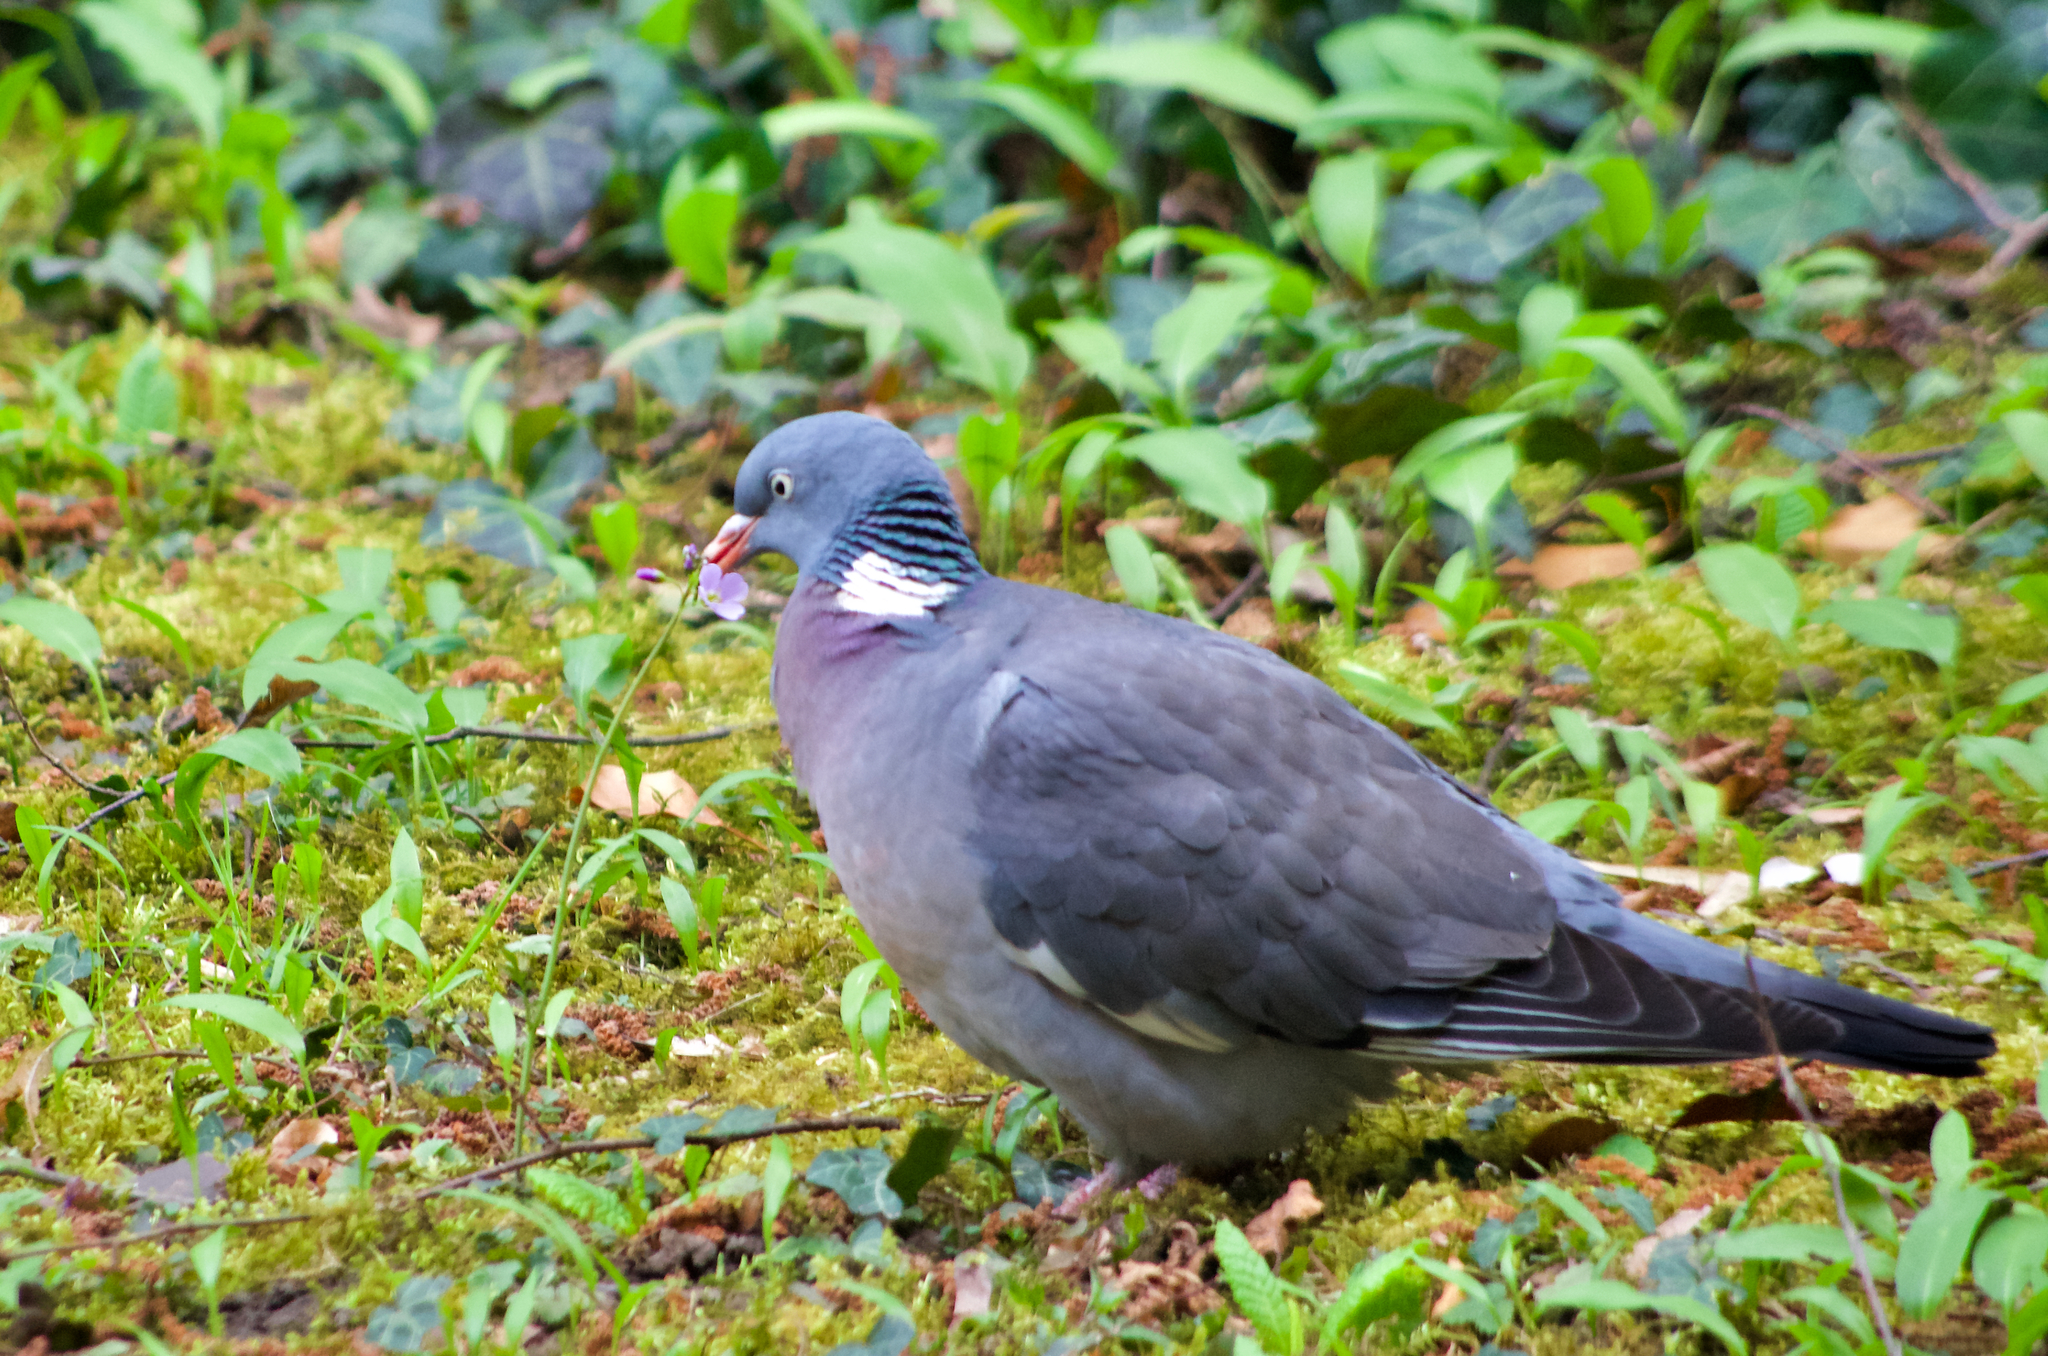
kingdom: Animalia
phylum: Chordata
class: Aves
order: Columbiformes
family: Columbidae
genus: Columba
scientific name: Columba palumbus
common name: Common wood pigeon
